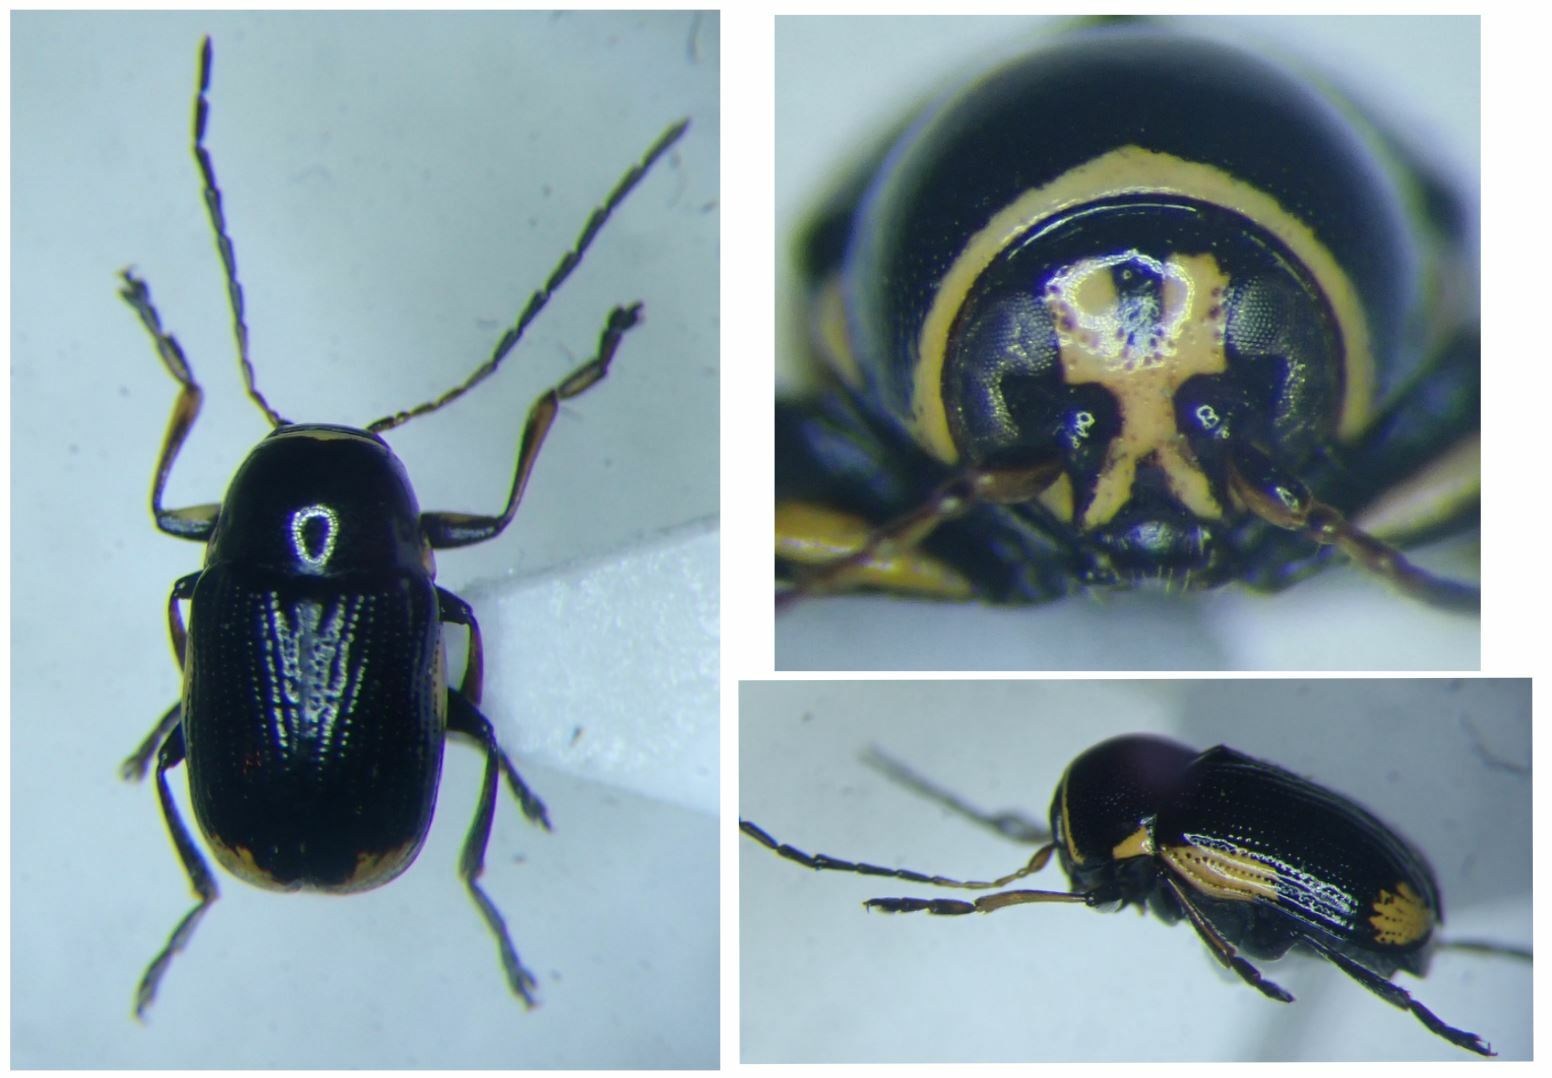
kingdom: Animalia
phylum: Arthropoda
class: Insecta
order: Coleoptera
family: Chrysomelidae
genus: Cryptocephalus
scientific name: Cryptocephalus moraei
